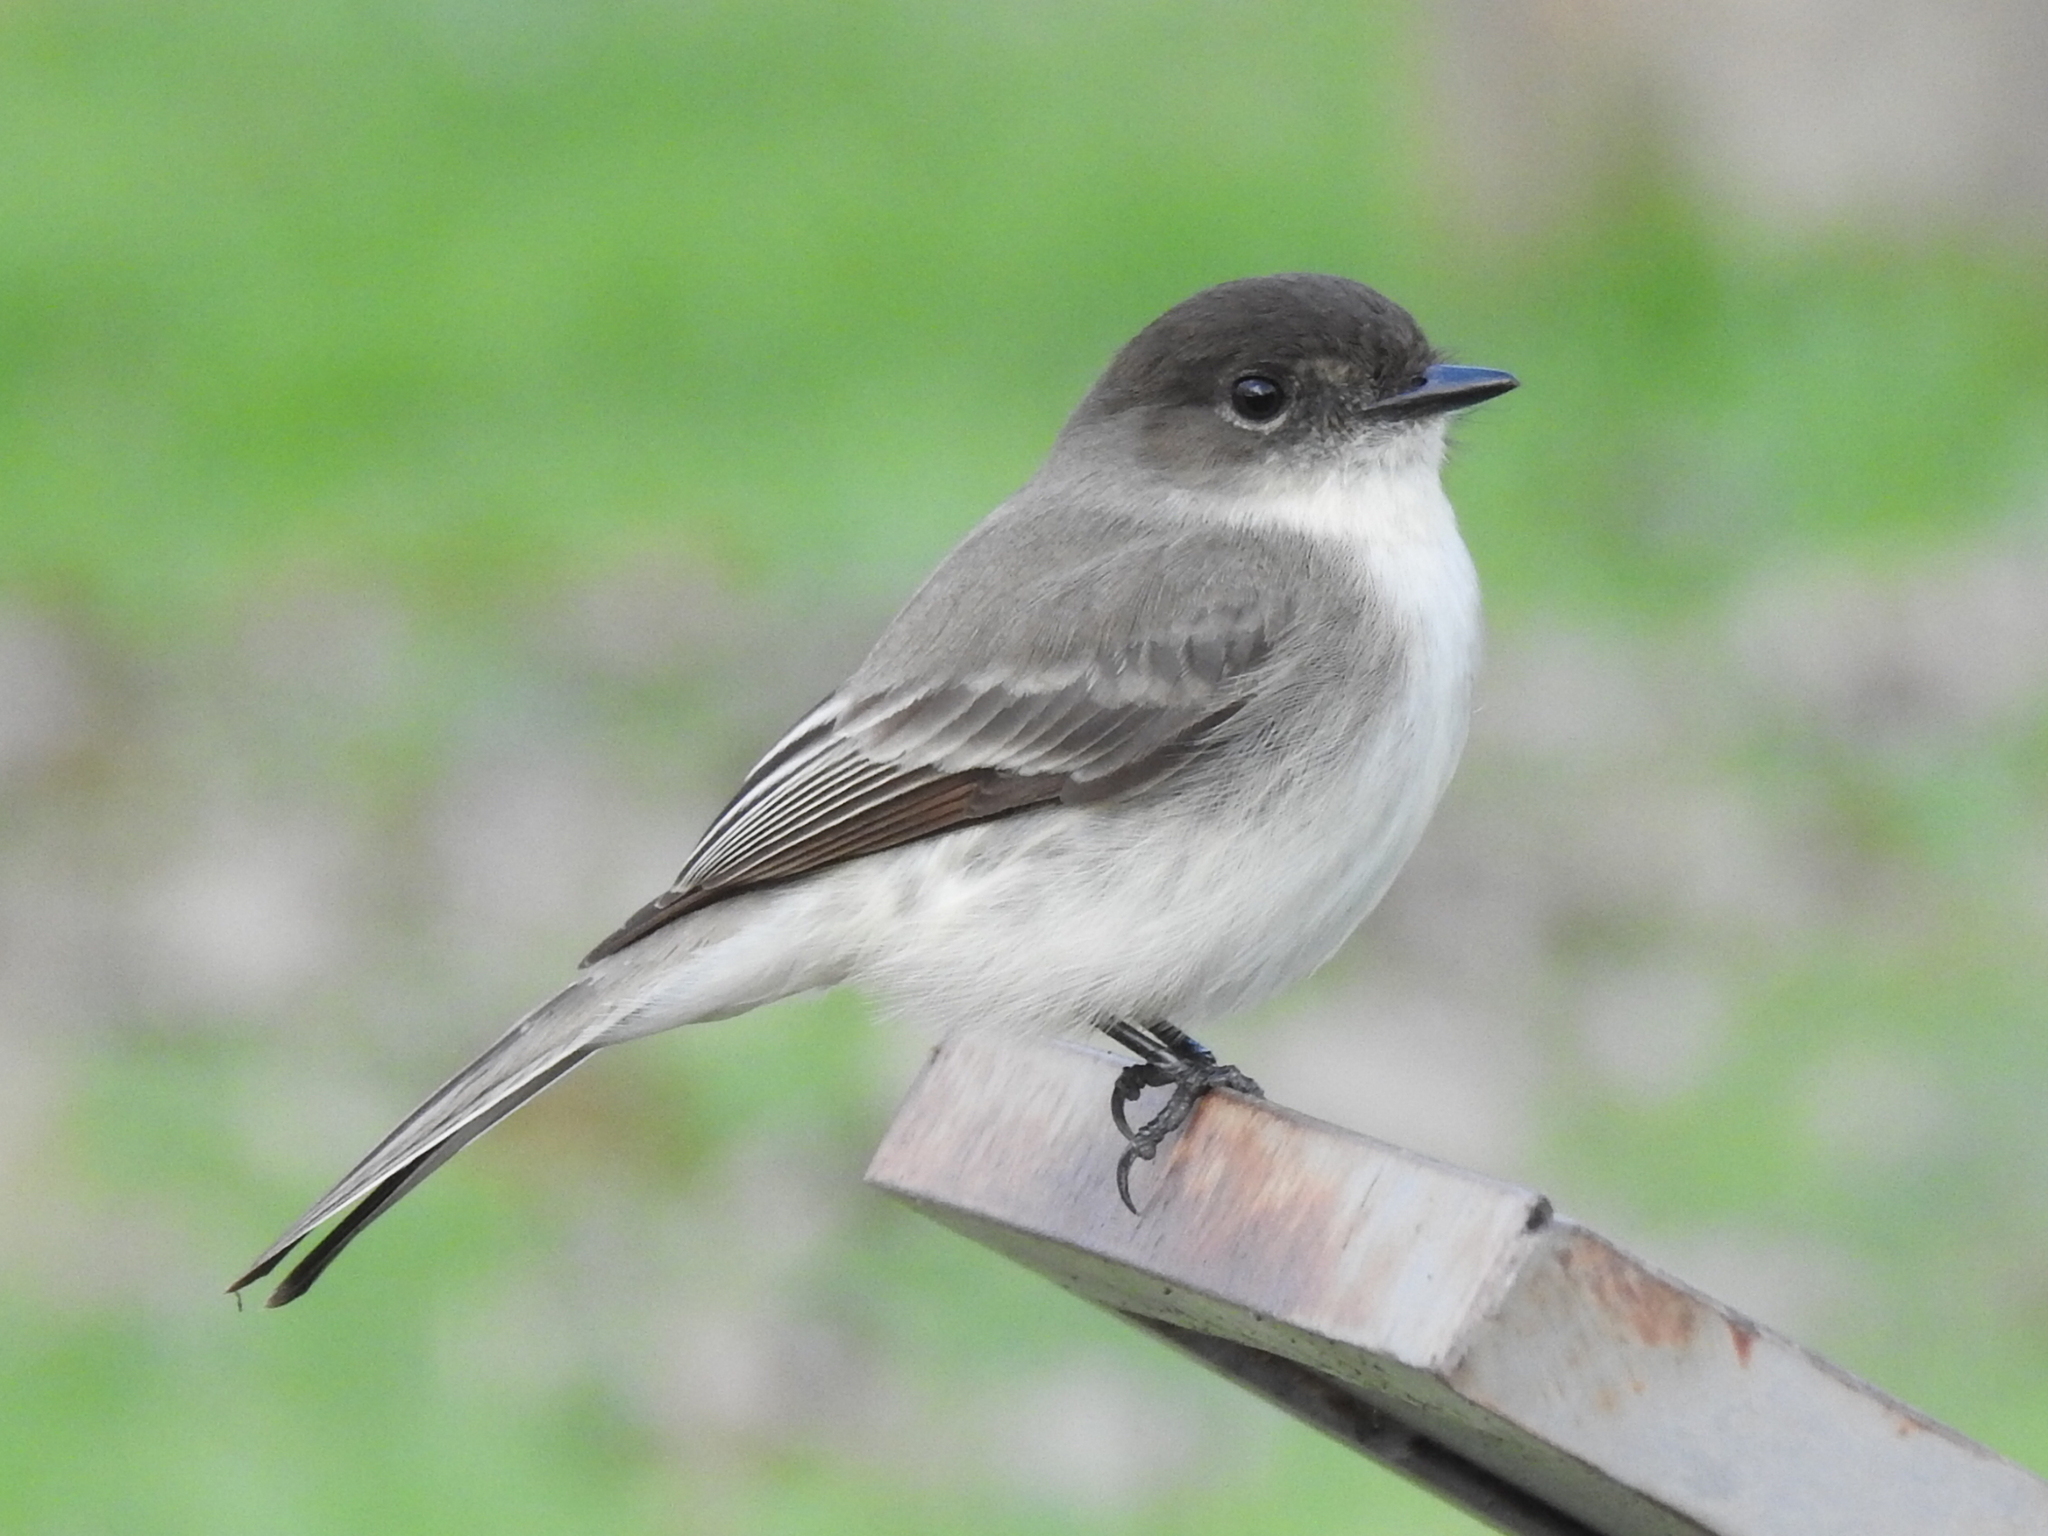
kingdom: Animalia
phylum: Chordata
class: Aves
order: Passeriformes
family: Tyrannidae
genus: Sayornis
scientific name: Sayornis phoebe
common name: Eastern phoebe
